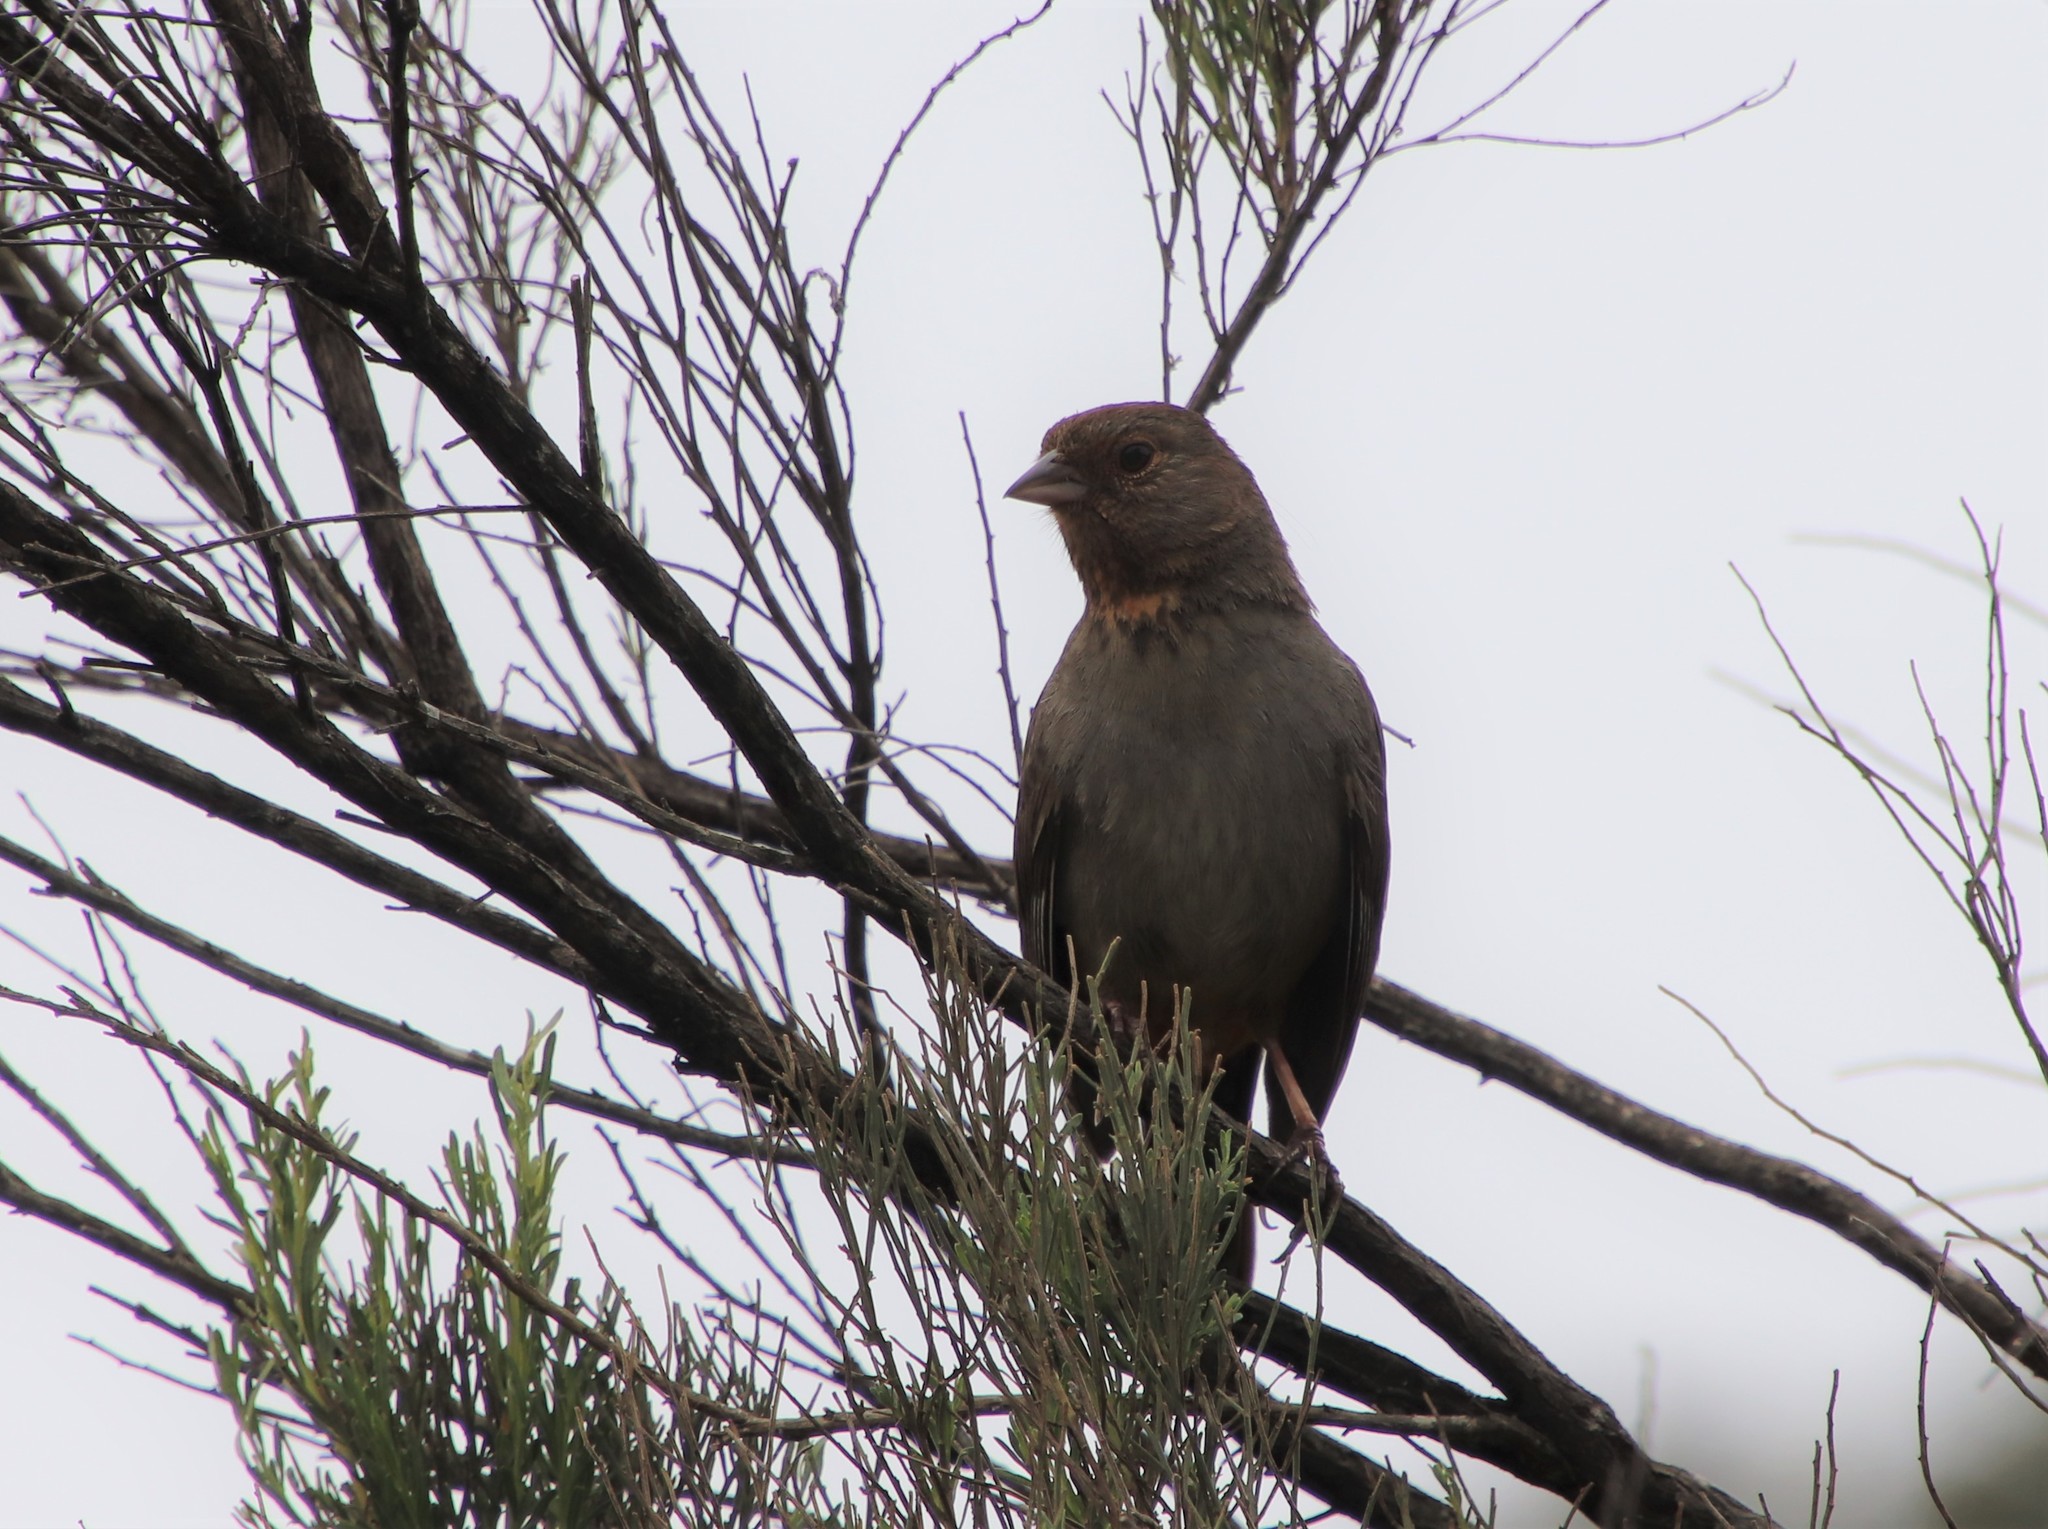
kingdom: Animalia
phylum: Chordata
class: Aves
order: Passeriformes
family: Passerellidae
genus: Melozone
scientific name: Melozone crissalis
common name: California towhee
